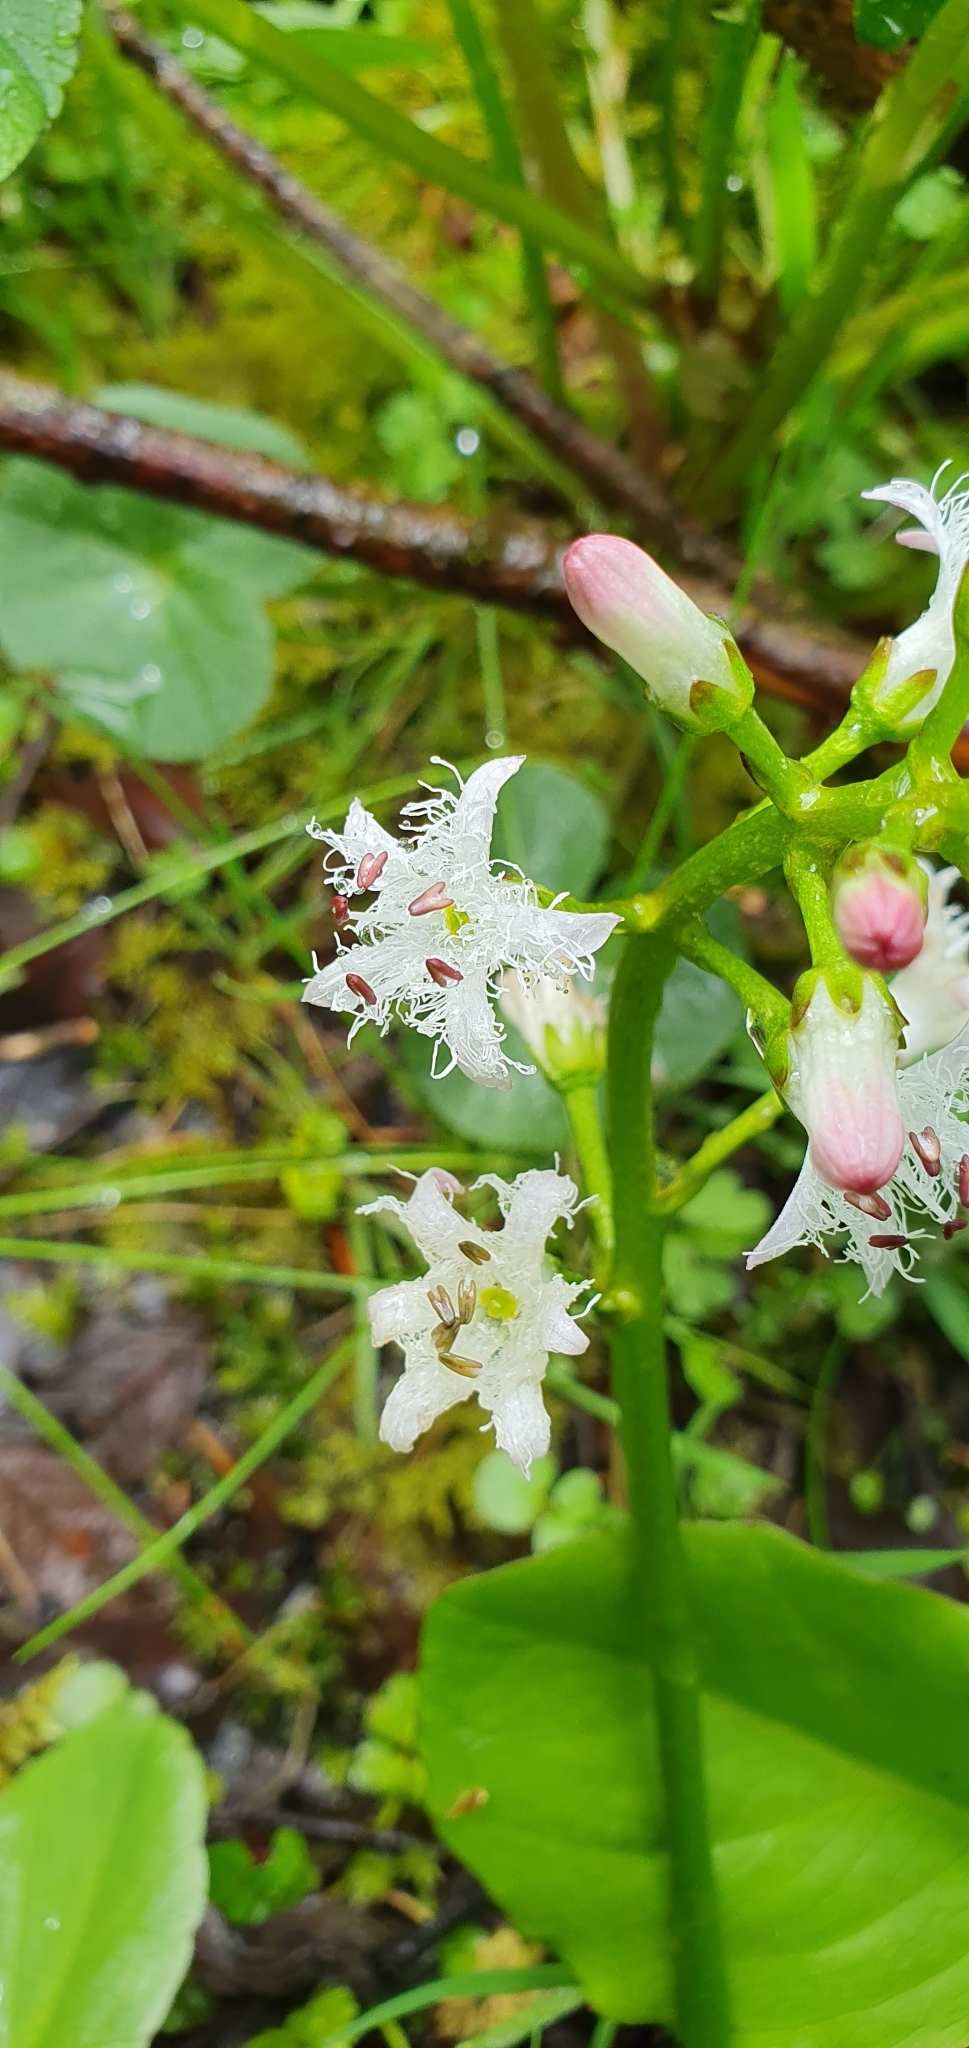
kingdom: Plantae
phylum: Tracheophyta
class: Magnoliopsida
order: Asterales
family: Menyanthaceae
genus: Menyanthes
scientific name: Menyanthes trifoliata
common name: Bogbean
